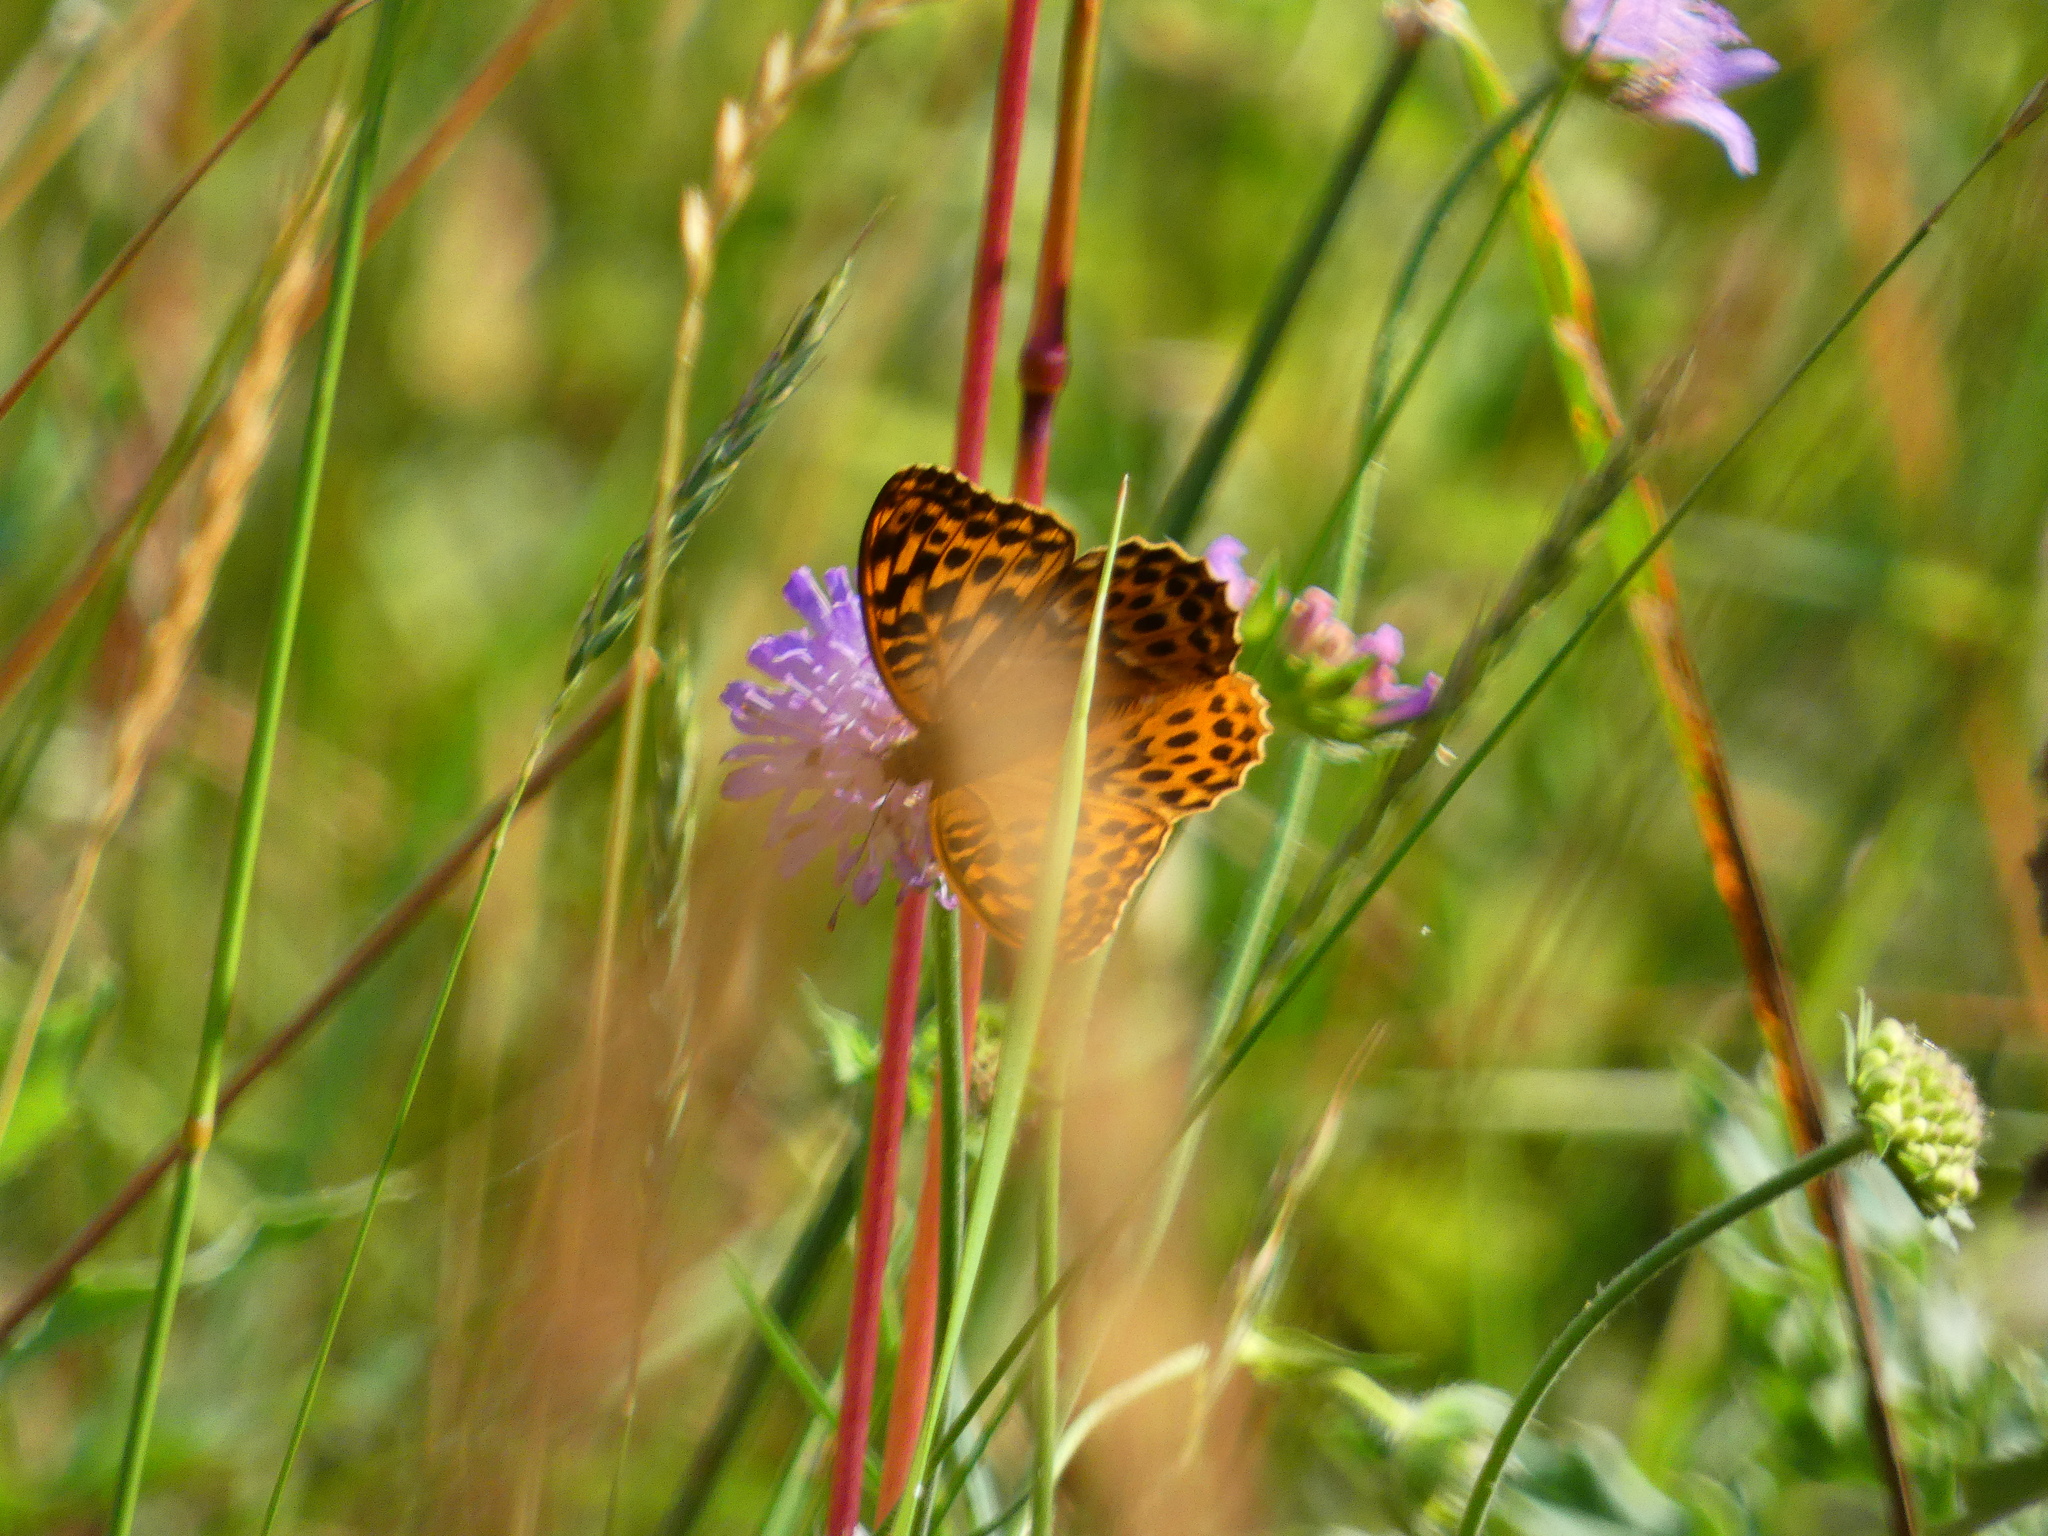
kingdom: Animalia
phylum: Arthropoda
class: Insecta
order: Lepidoptera
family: Nymphalidae
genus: Argynnis
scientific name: Argynnis paphia
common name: Silver-washed fritillary
